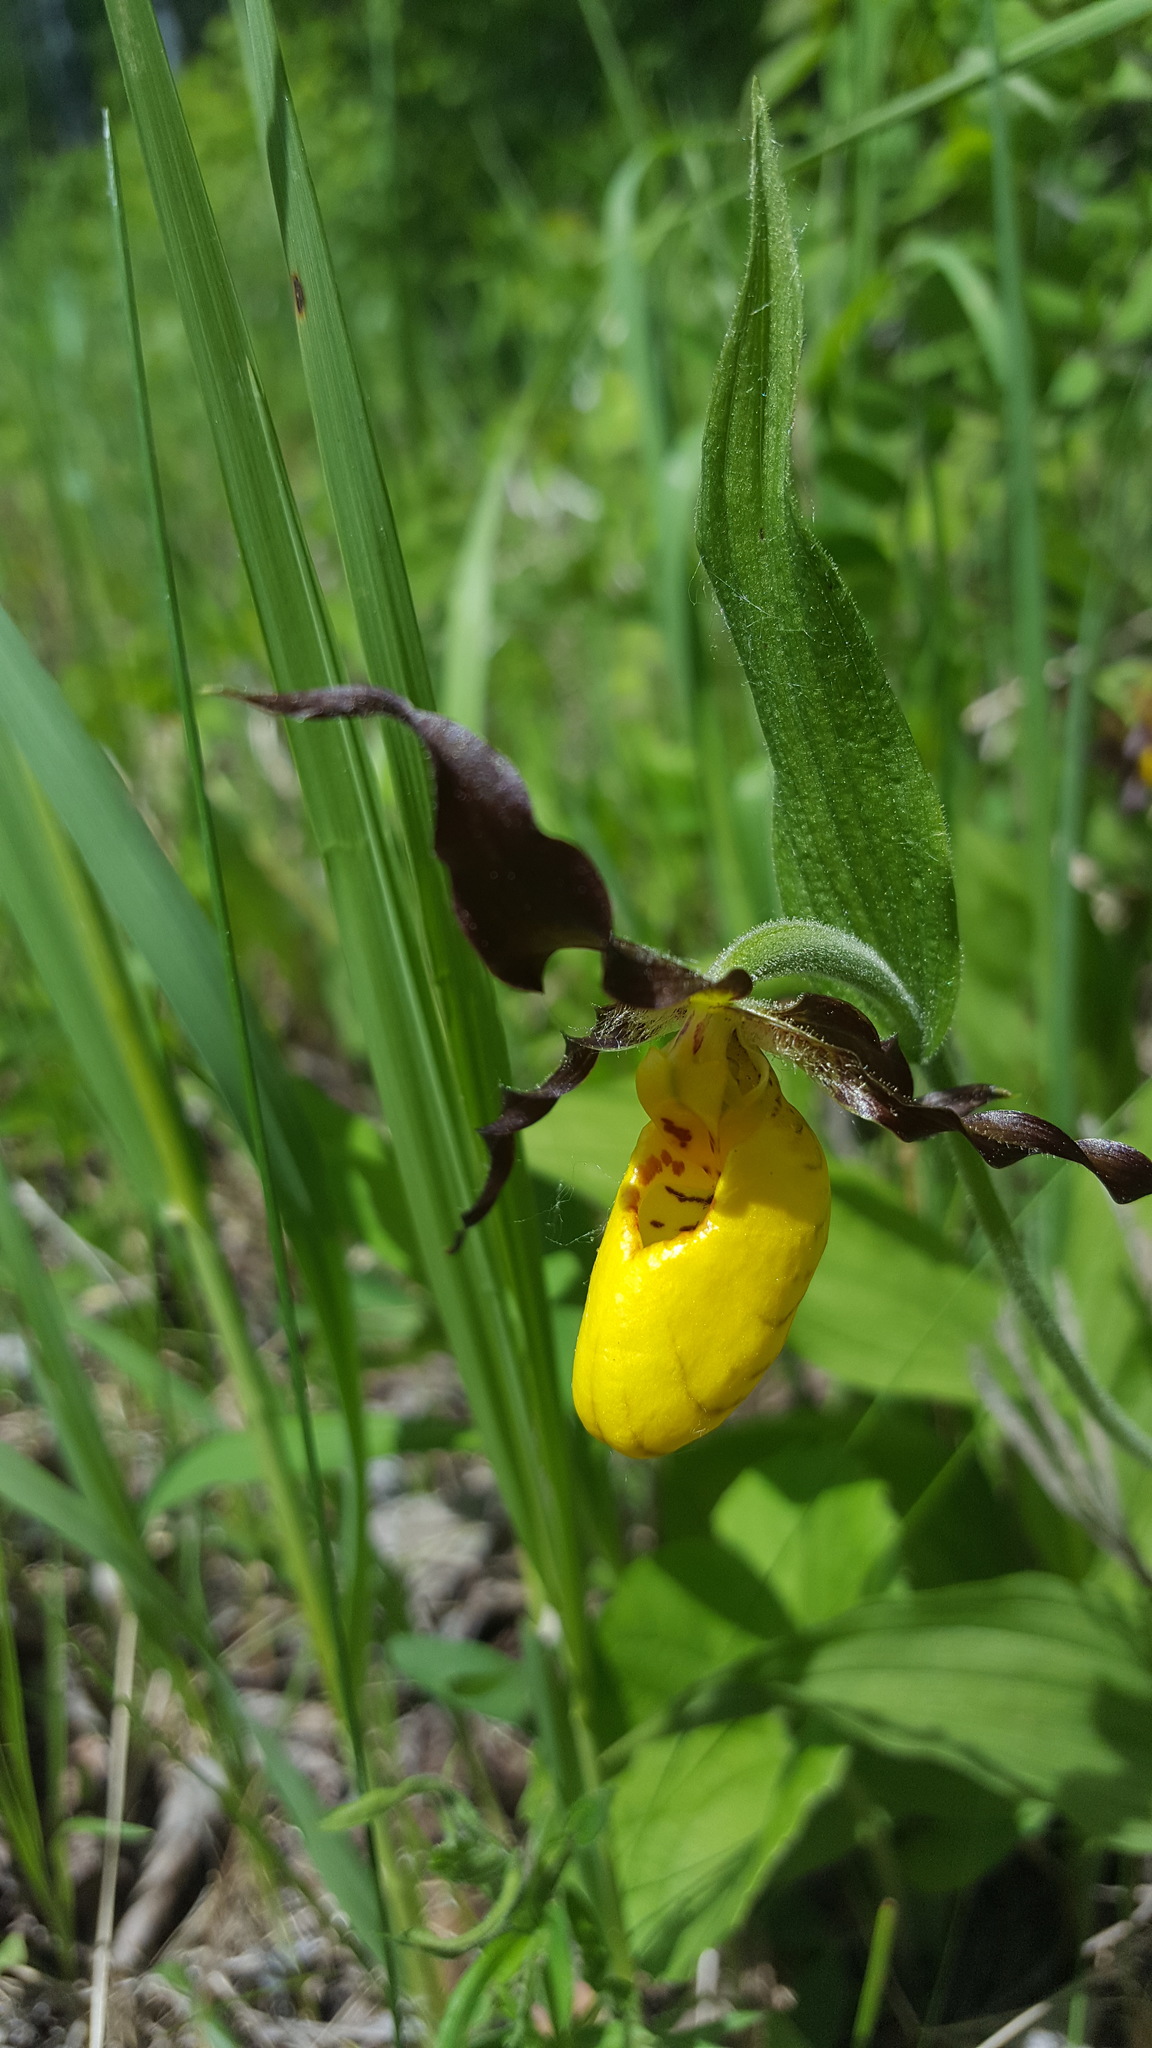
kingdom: Plantae
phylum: Tracheophyta
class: Liliopsida
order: Asparagales
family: Orchidaceae
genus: Cypripedium
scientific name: Cypripedium parviflorum
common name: American yellow lady's-slipper
